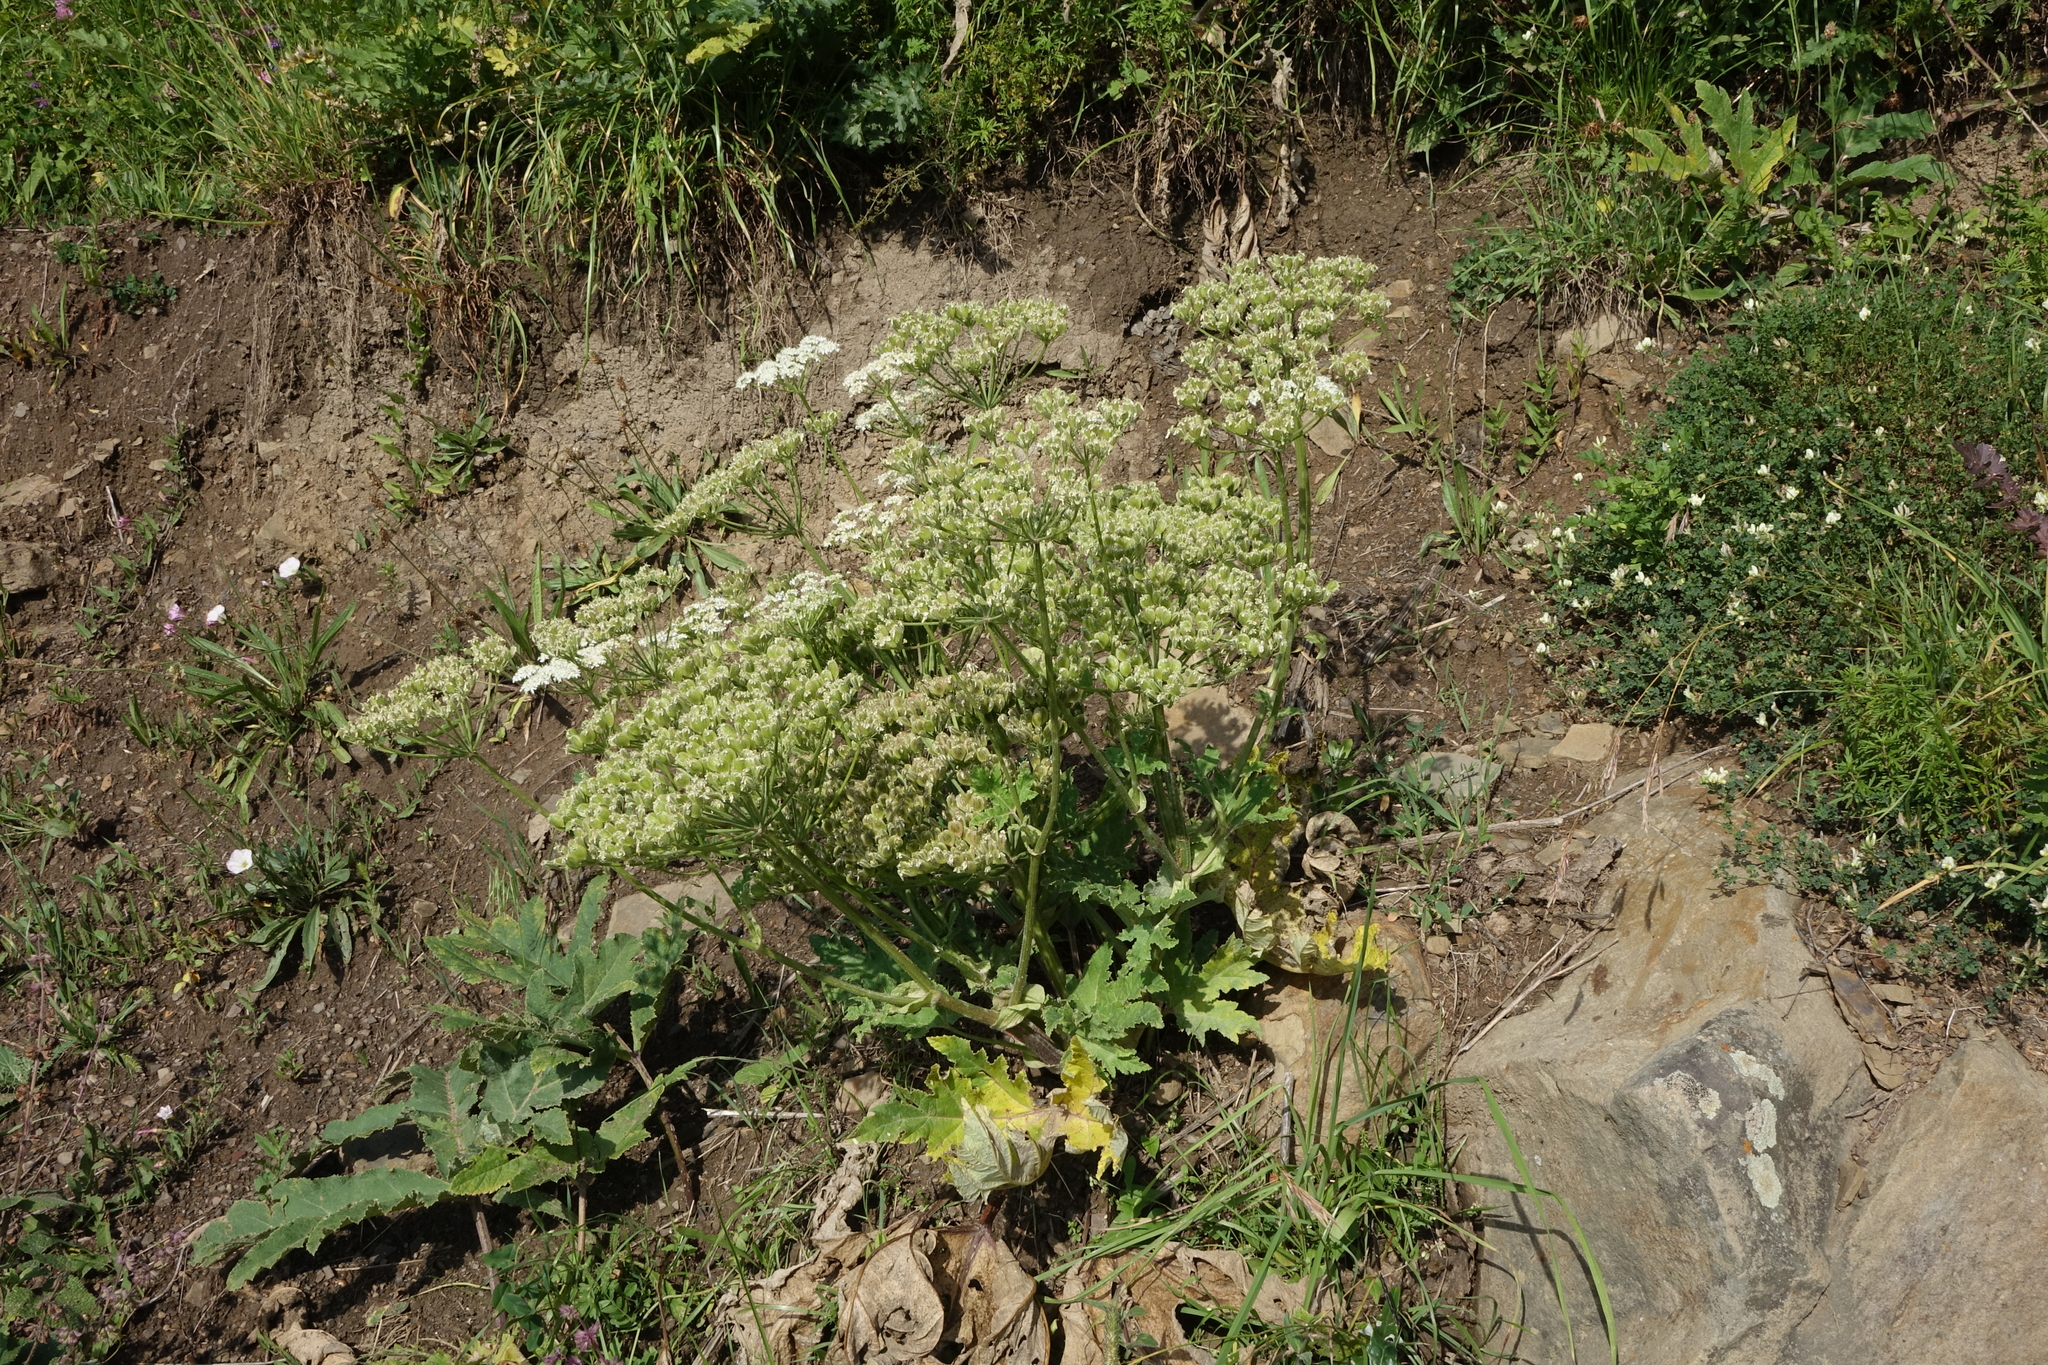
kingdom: Plantae
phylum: Tracheophyta
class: Magnoliopsida
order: Apiales
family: Apiaceae
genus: Heracleum
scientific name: Heracleum grandiflorum
